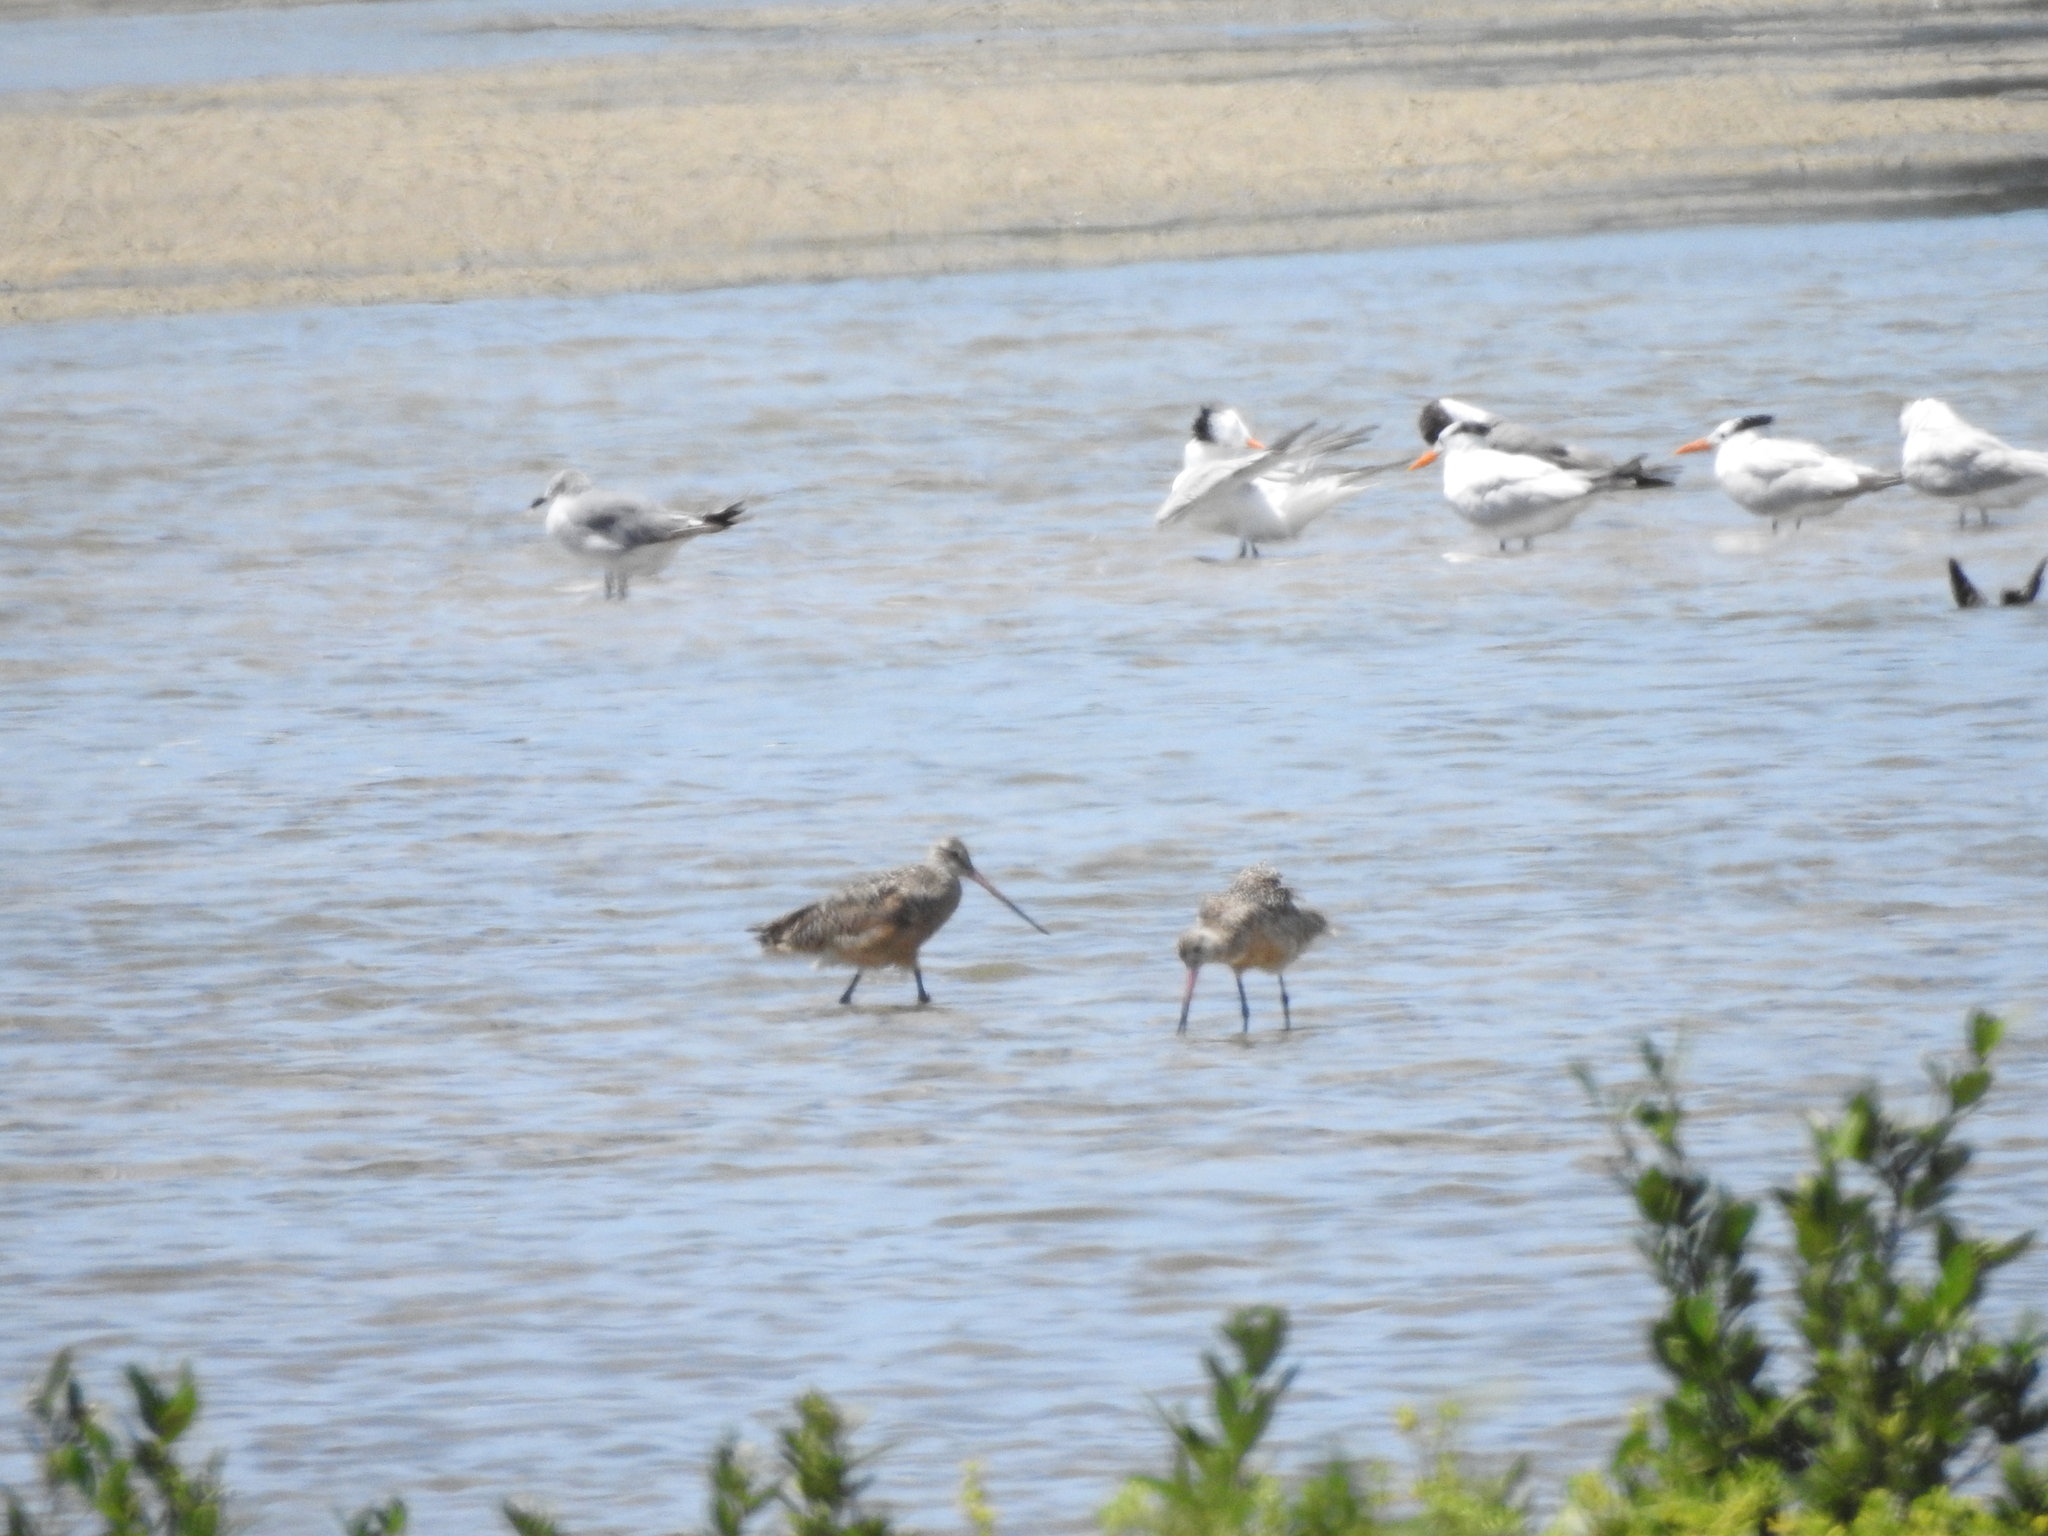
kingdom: Animalia
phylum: Chordata
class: Aves
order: Charadriiformes
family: Scolopacidae
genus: Limosa
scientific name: Limosa fedoa
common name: Marbled godwit
